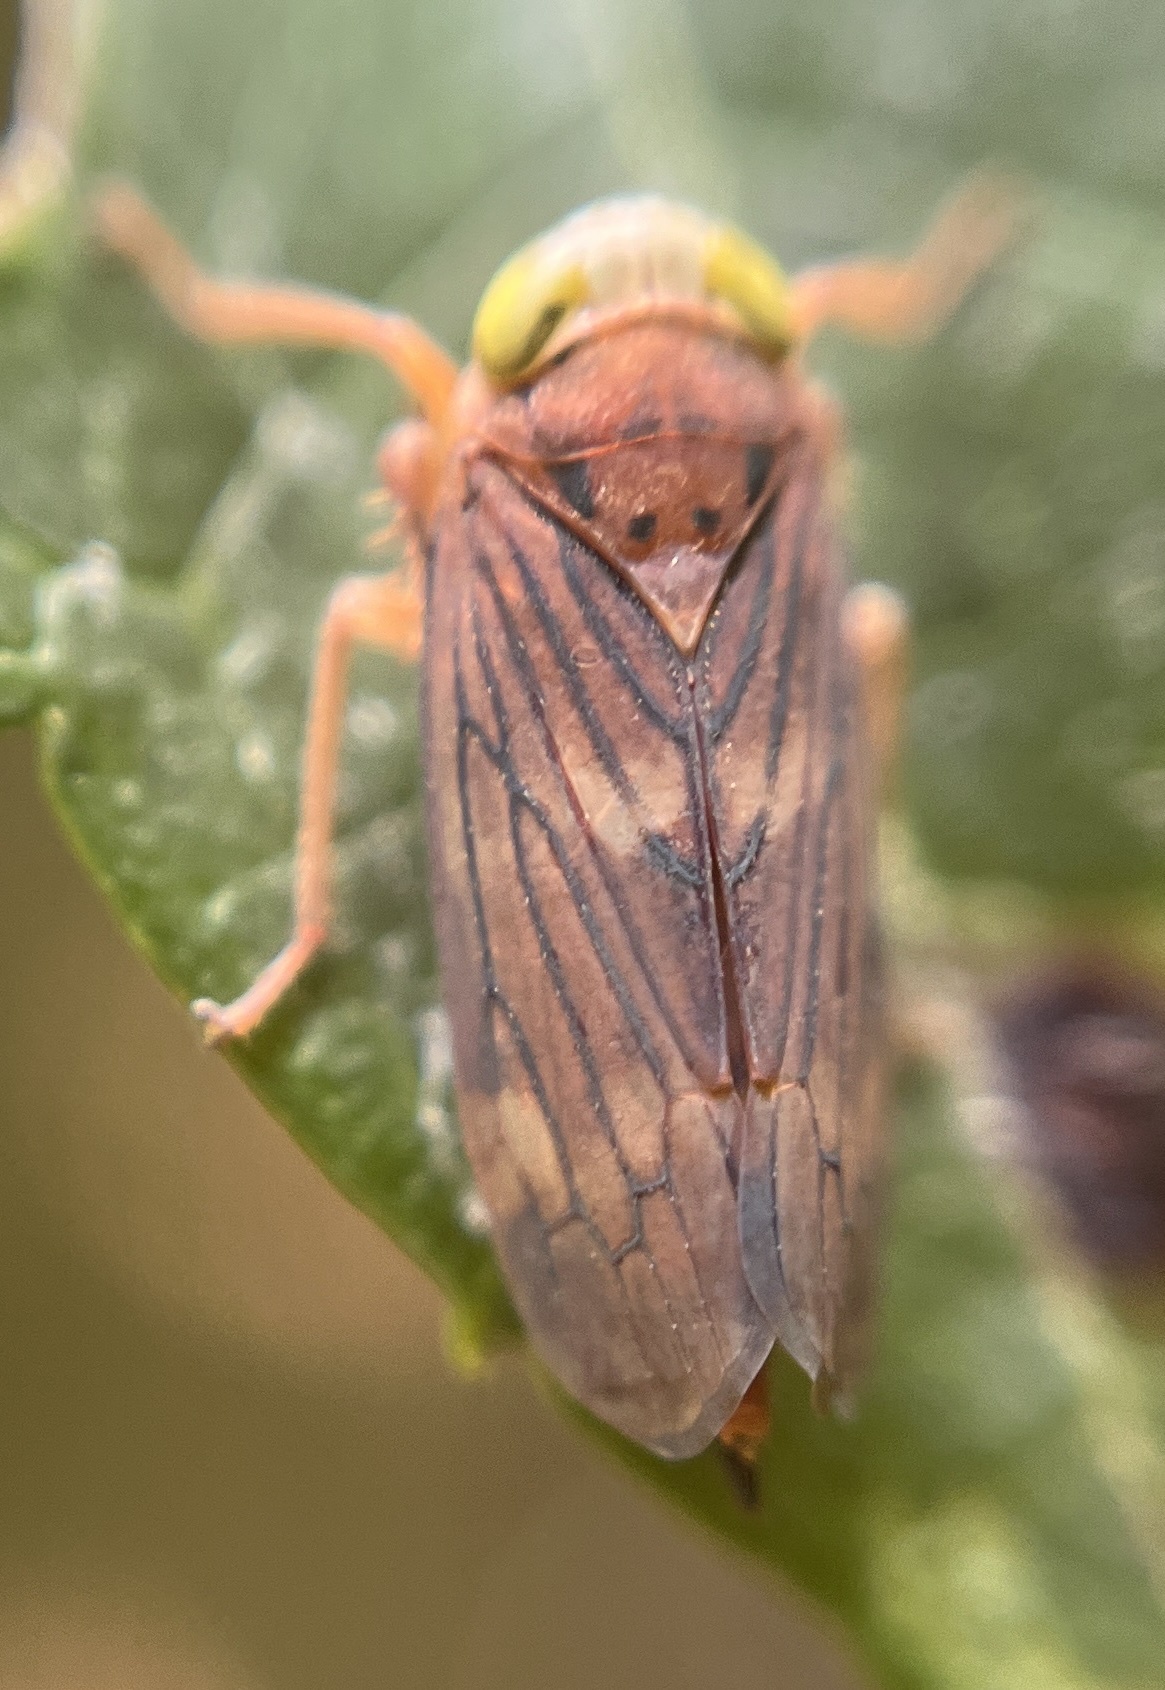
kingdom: Animalia
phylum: Arthropoda
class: Insecta
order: Hemiptera
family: Cicadellidae
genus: Jikradia
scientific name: Jikradia olitoria
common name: Coppery leafhopper
